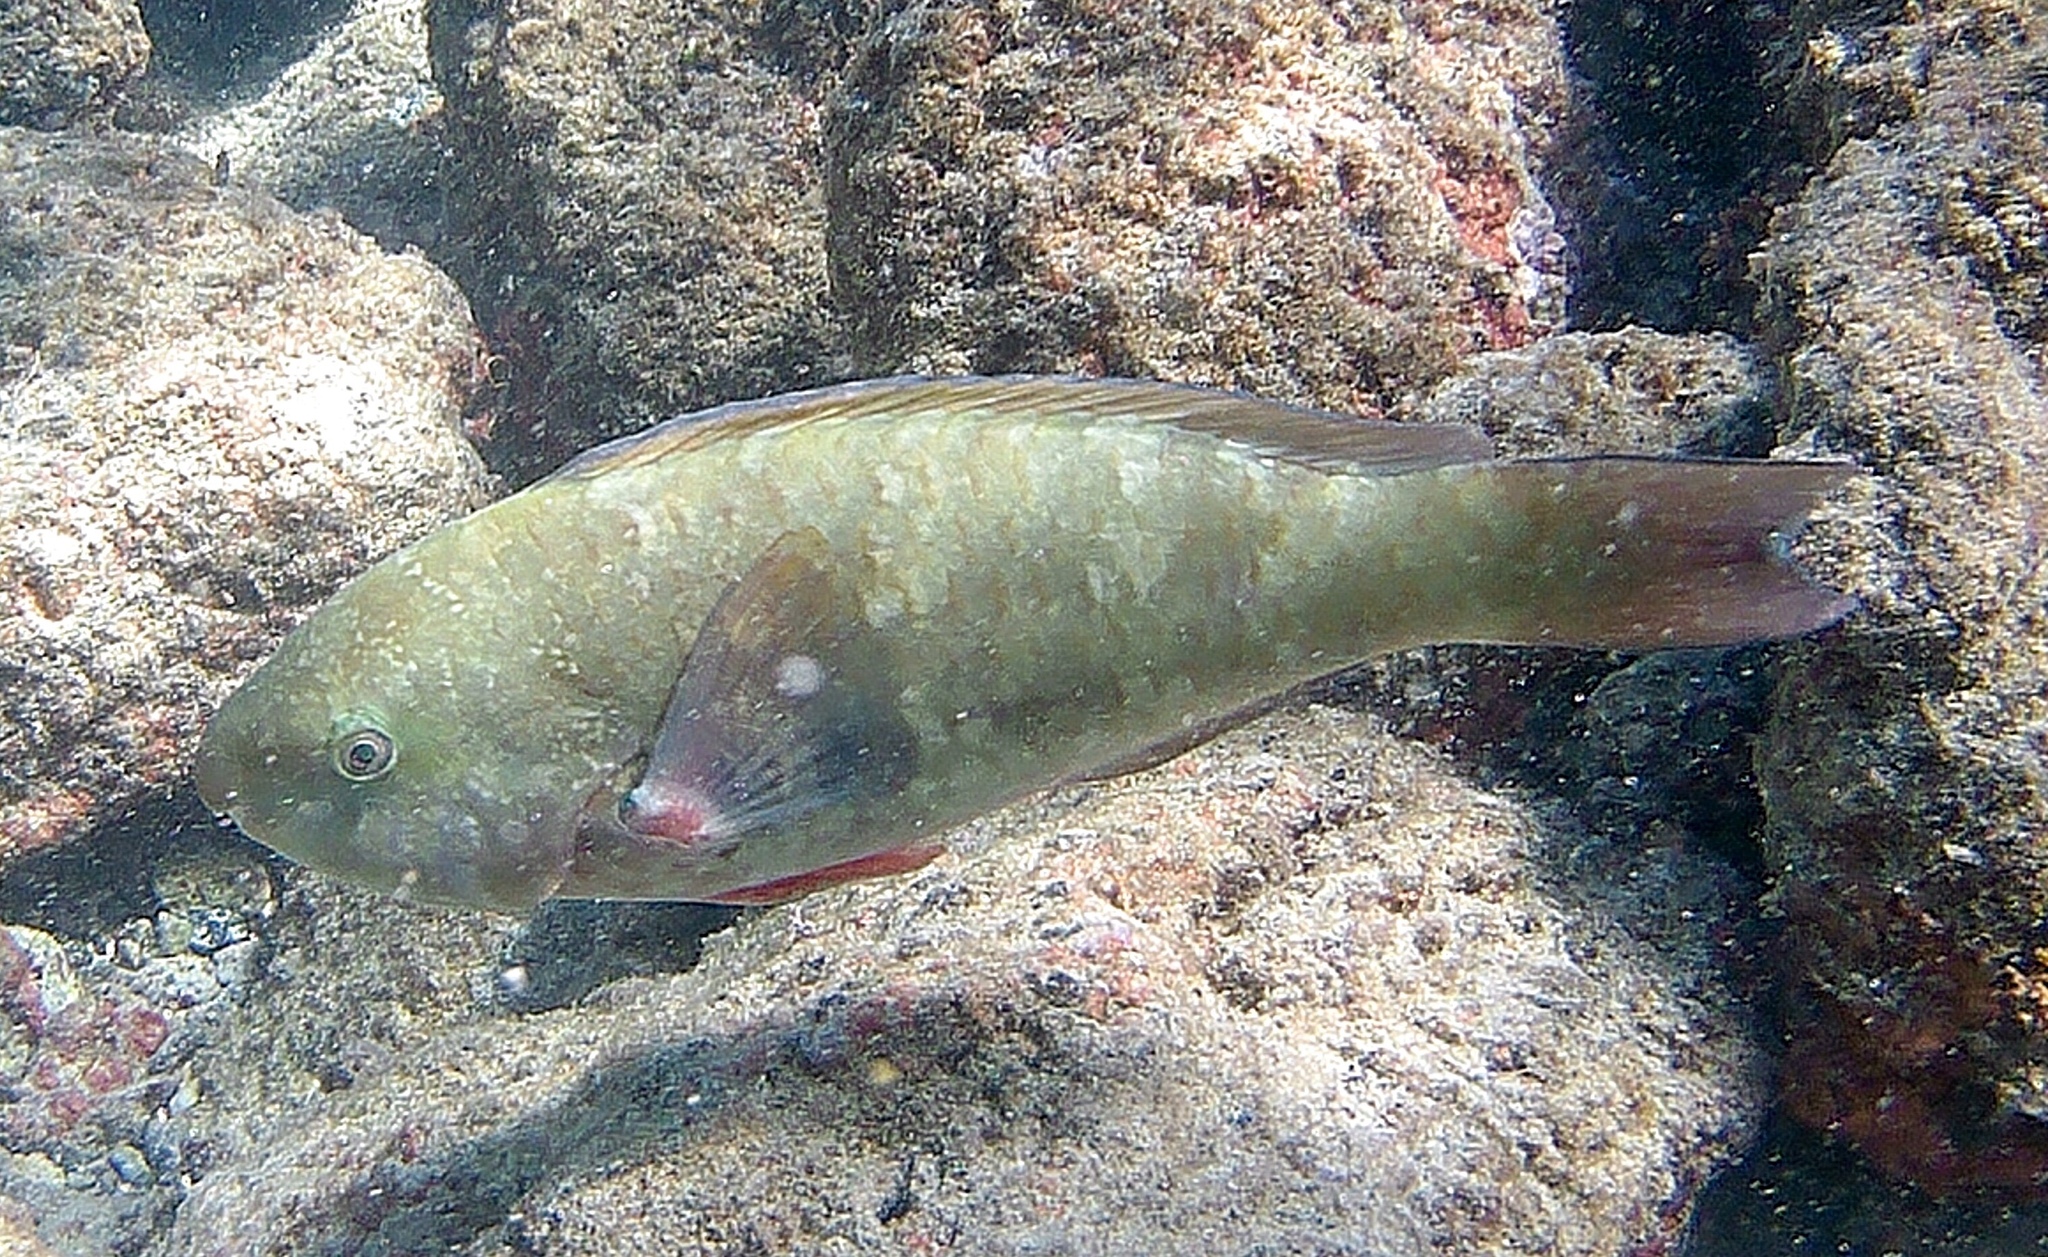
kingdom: Animalia
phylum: Chordata
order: Perciformes
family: Scaridae
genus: Scarus
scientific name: Scarus psittacus
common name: Palenose parrotfish
